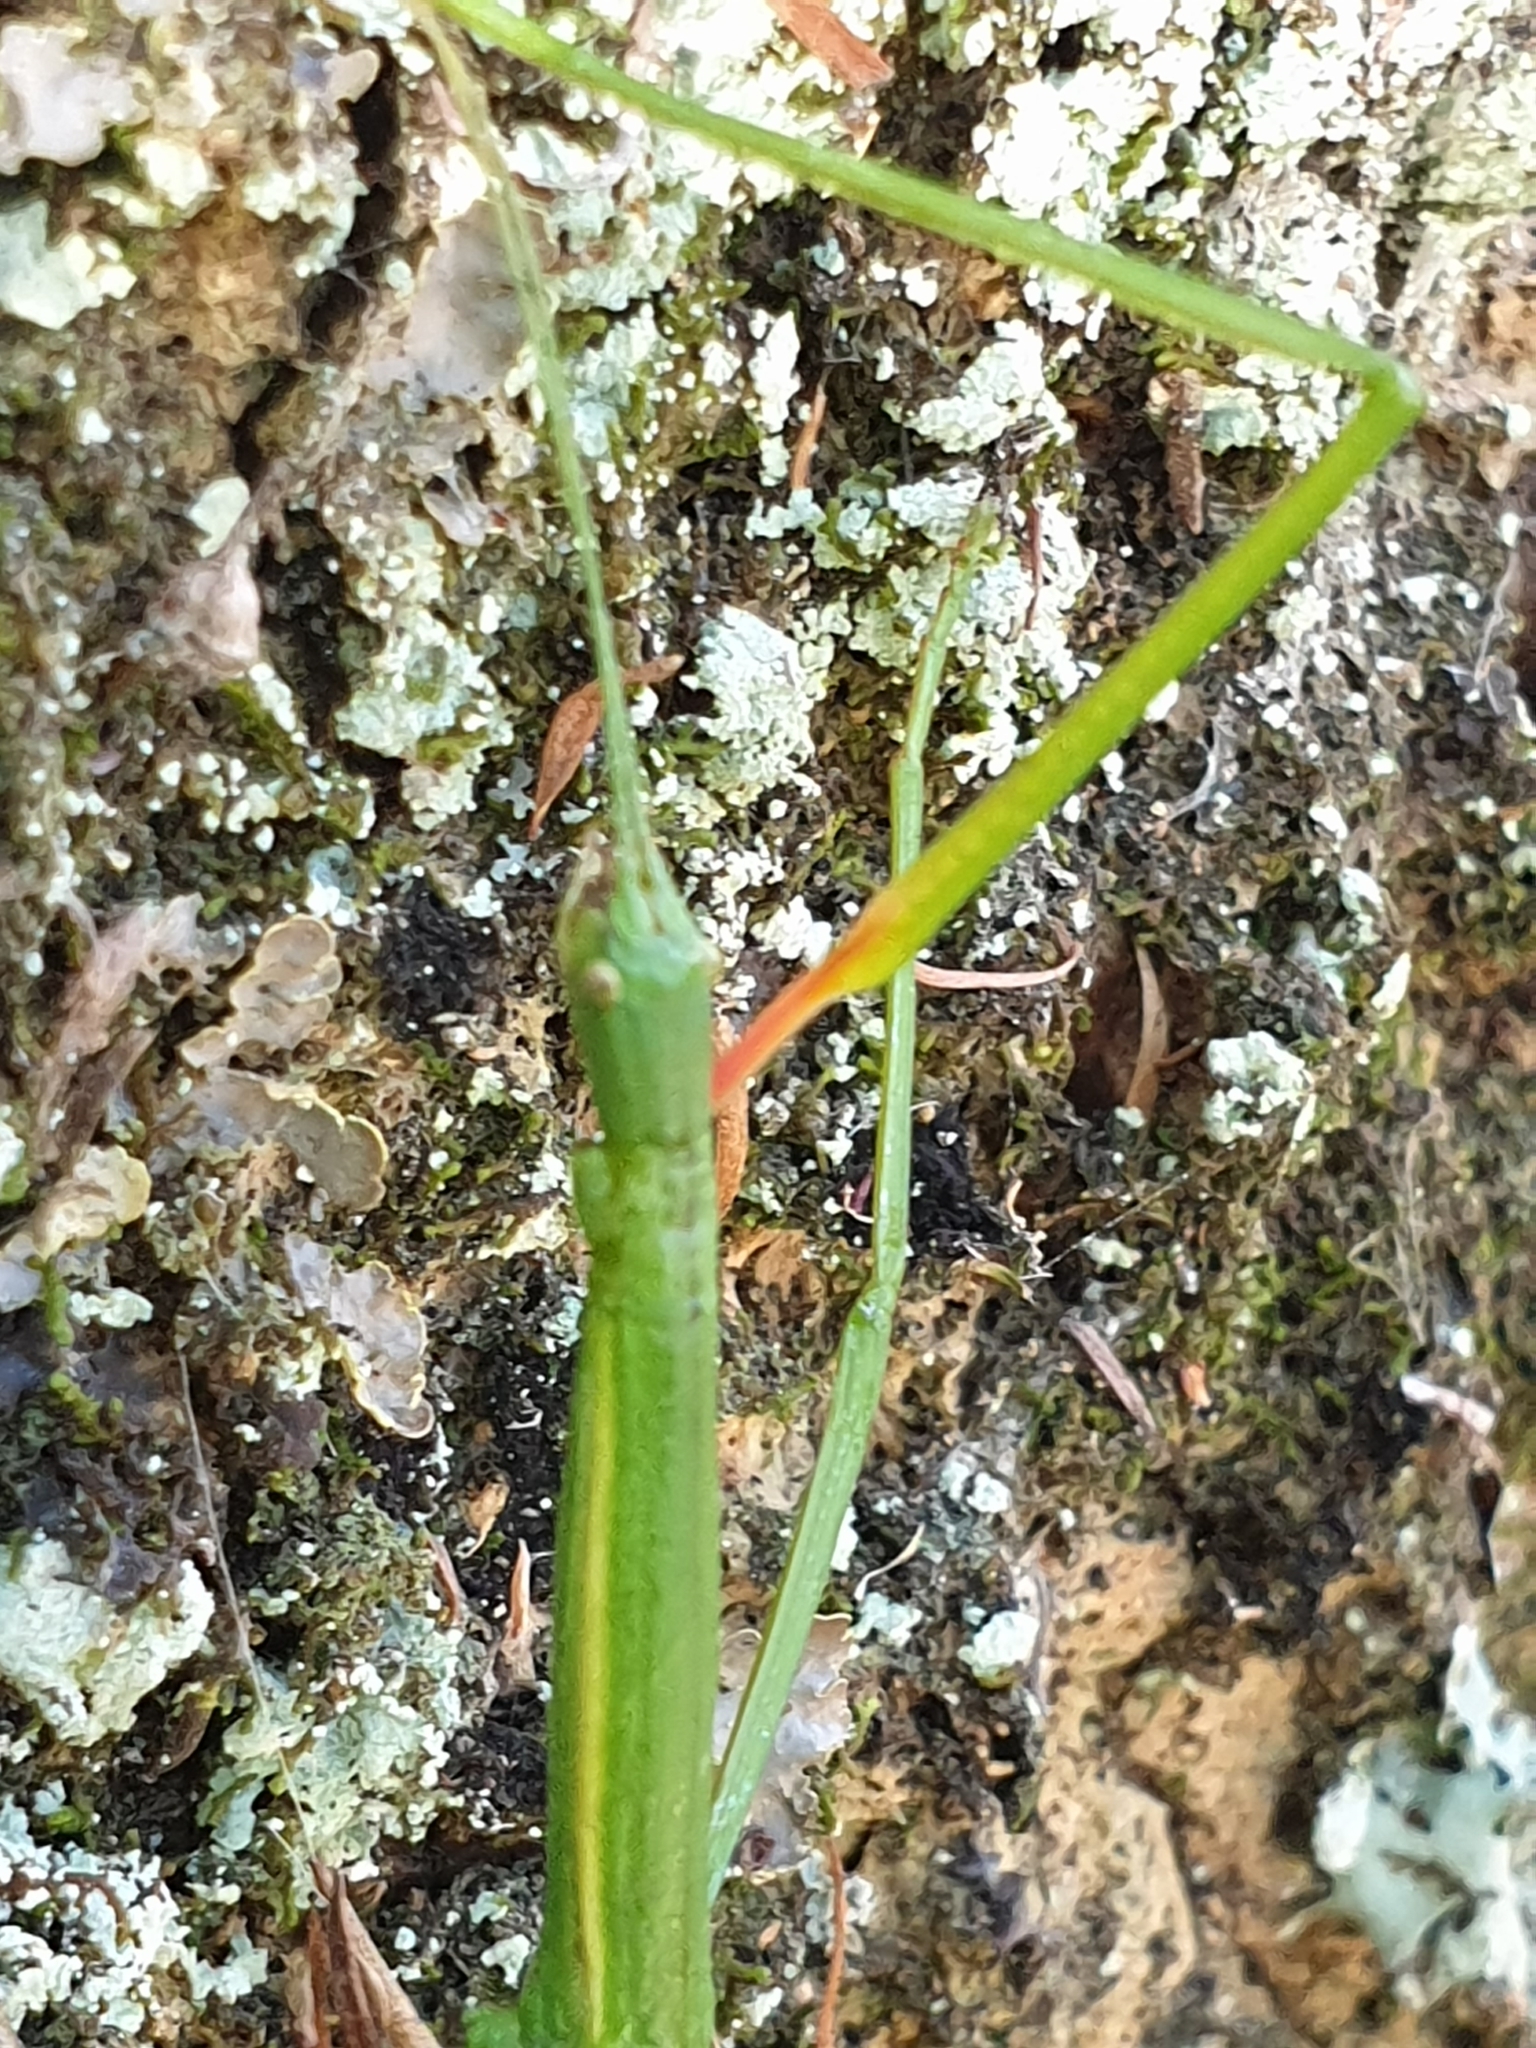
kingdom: Animalia
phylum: Arthropoda
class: Insecta
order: Phasmida
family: Phasmatidae
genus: Clitarchus
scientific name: Clitarchus hookeri
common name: Smooth stick insect
